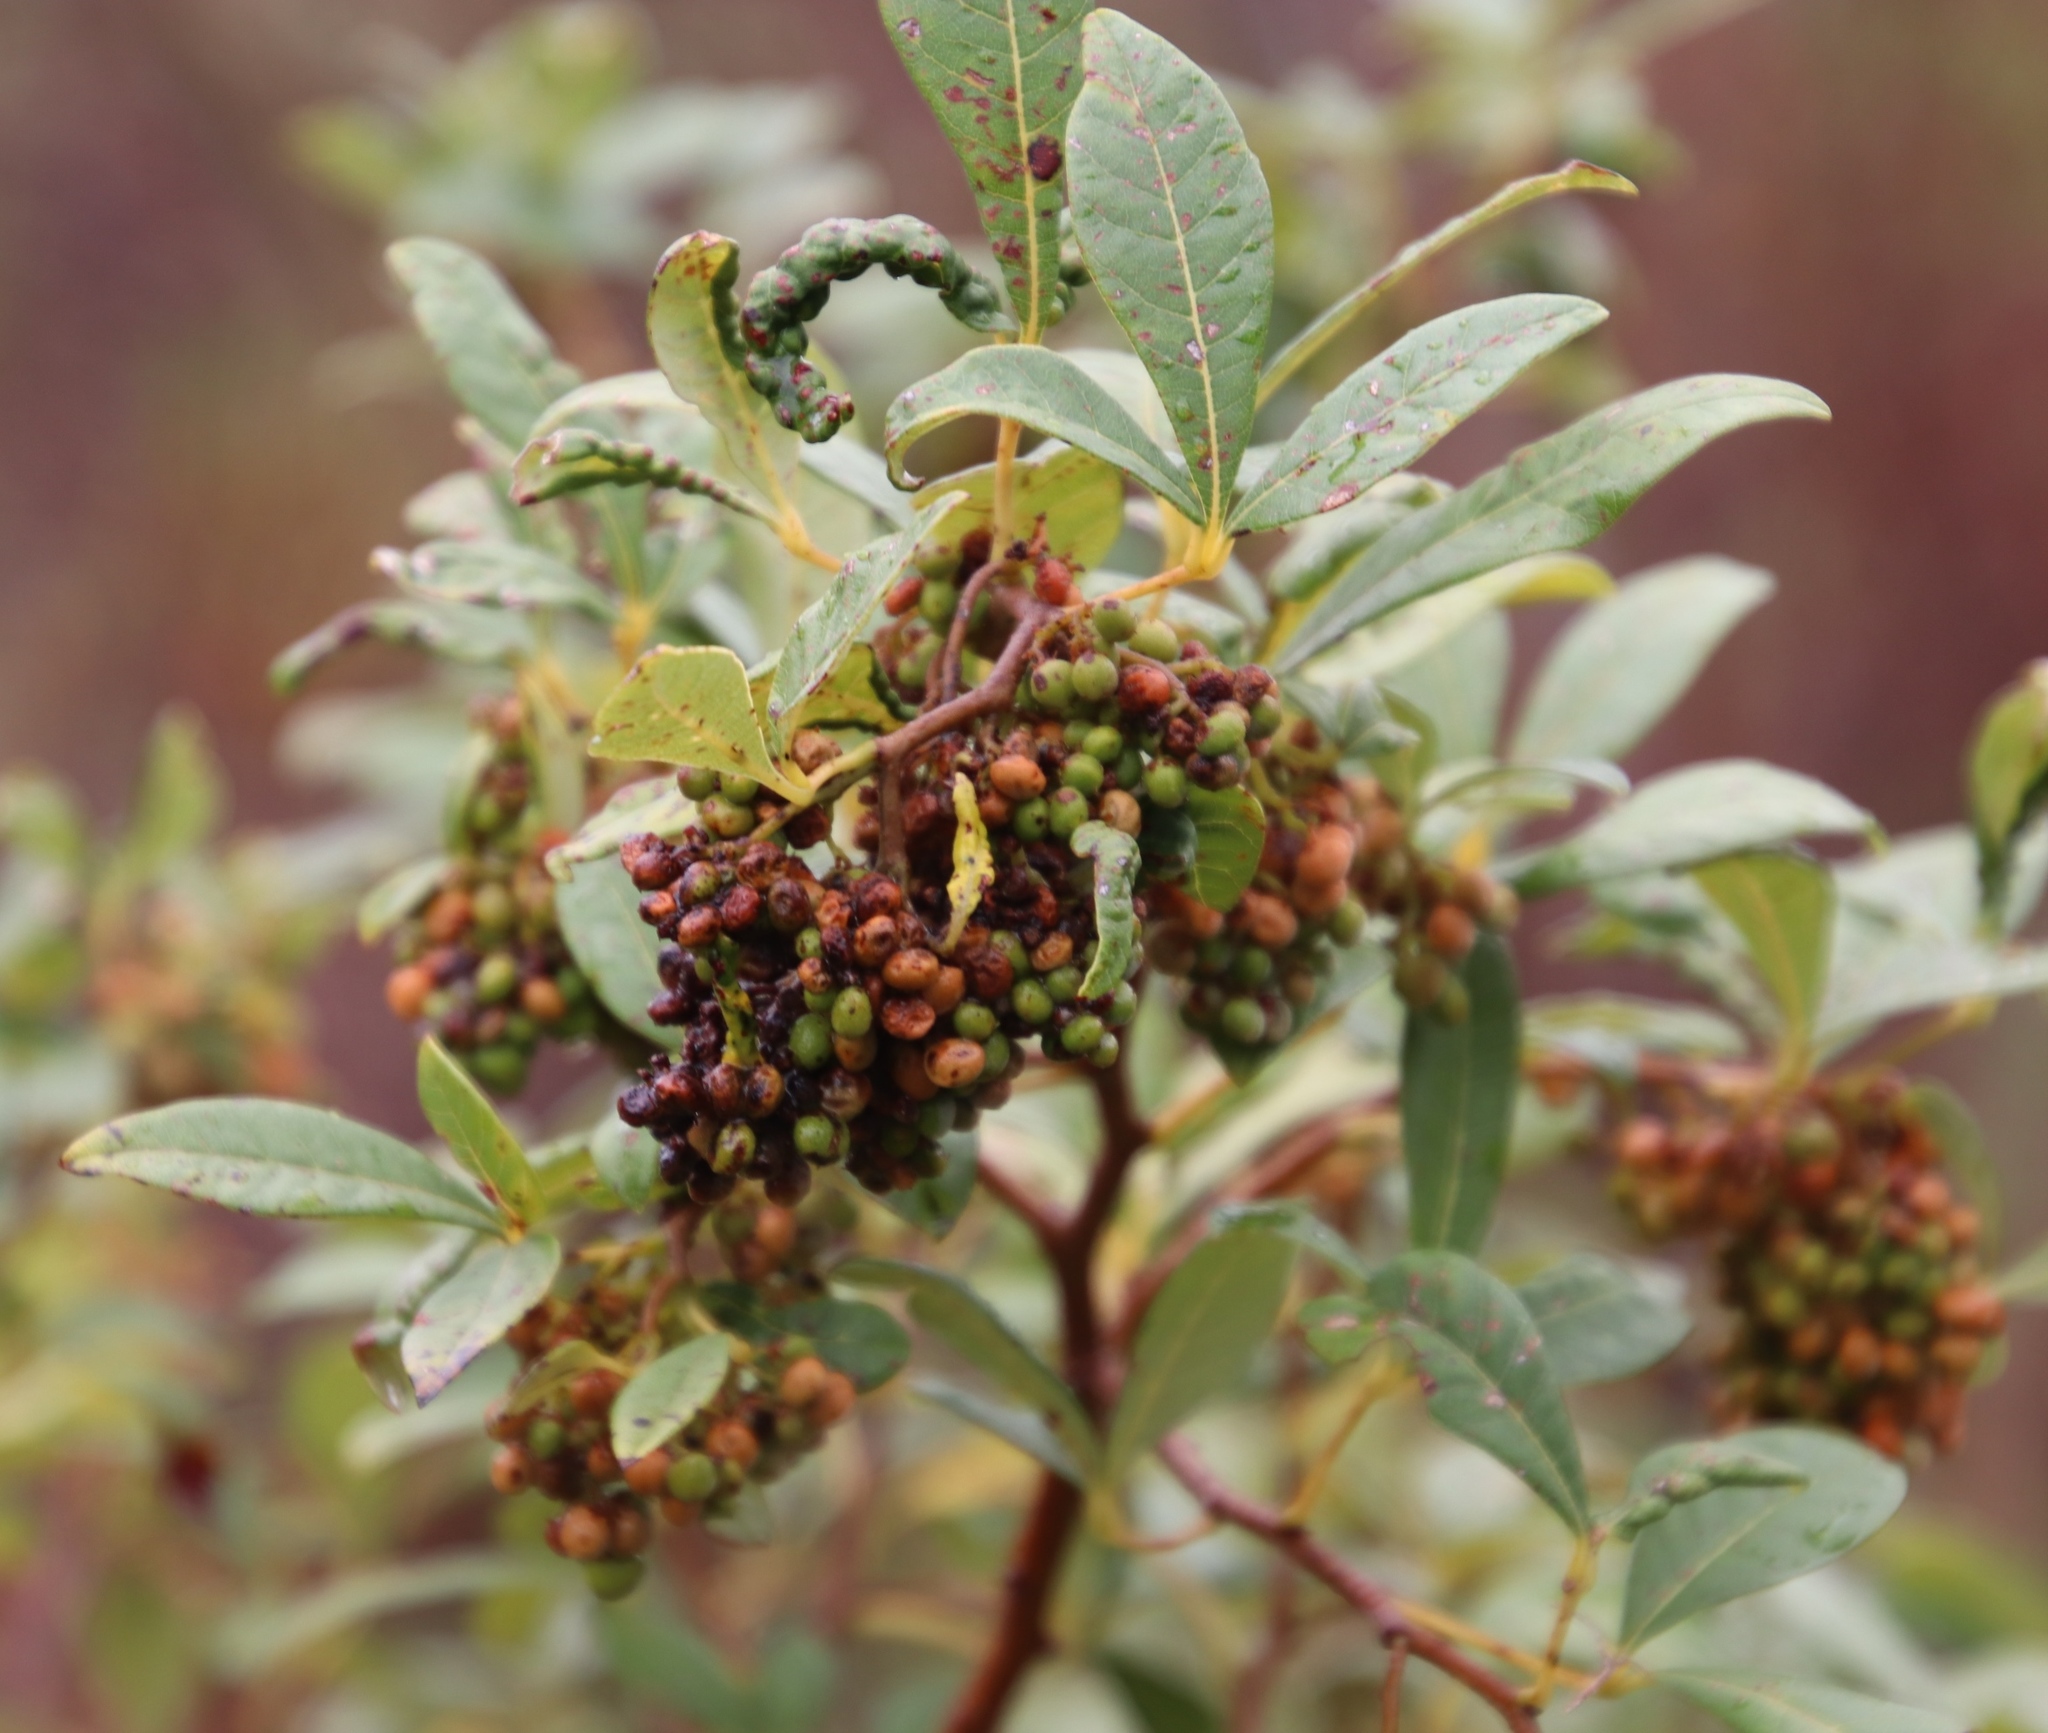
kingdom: Plantae
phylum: Tracheophyta
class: Magnoliopsida
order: Sapindales
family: Anacardiaceae
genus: Searsia
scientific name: Searsia tomentosa
